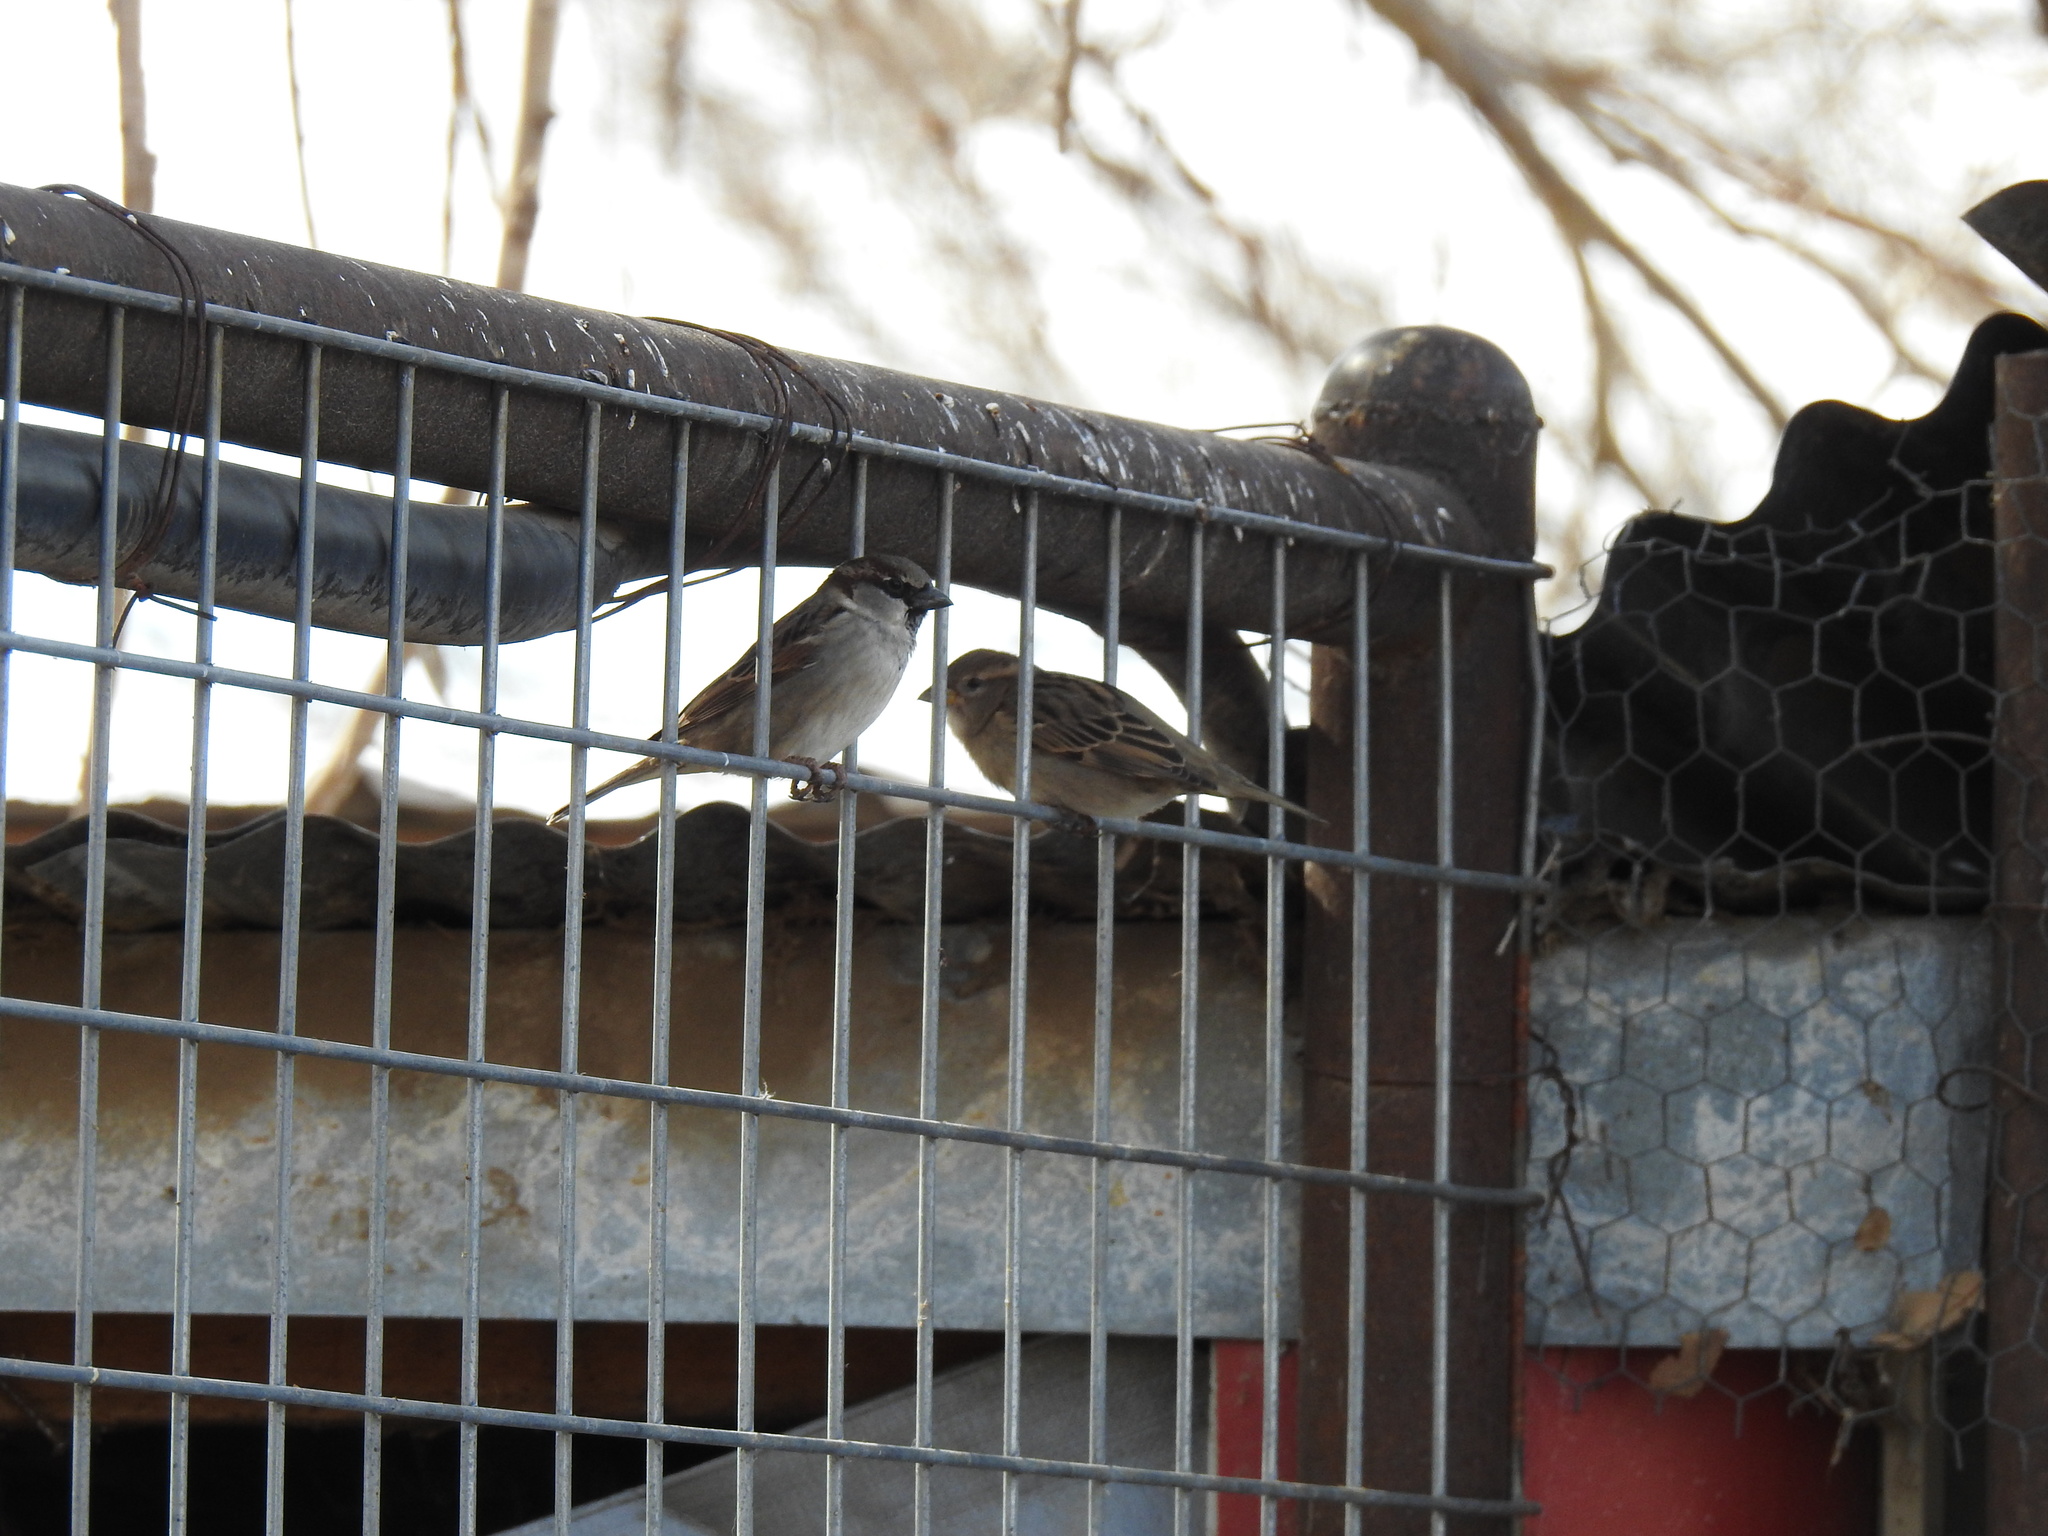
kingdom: Animalia
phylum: Chordata
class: Aves
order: Passeriformes
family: Passeridae
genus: Passer
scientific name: Passer domesticus
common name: House sparrow
